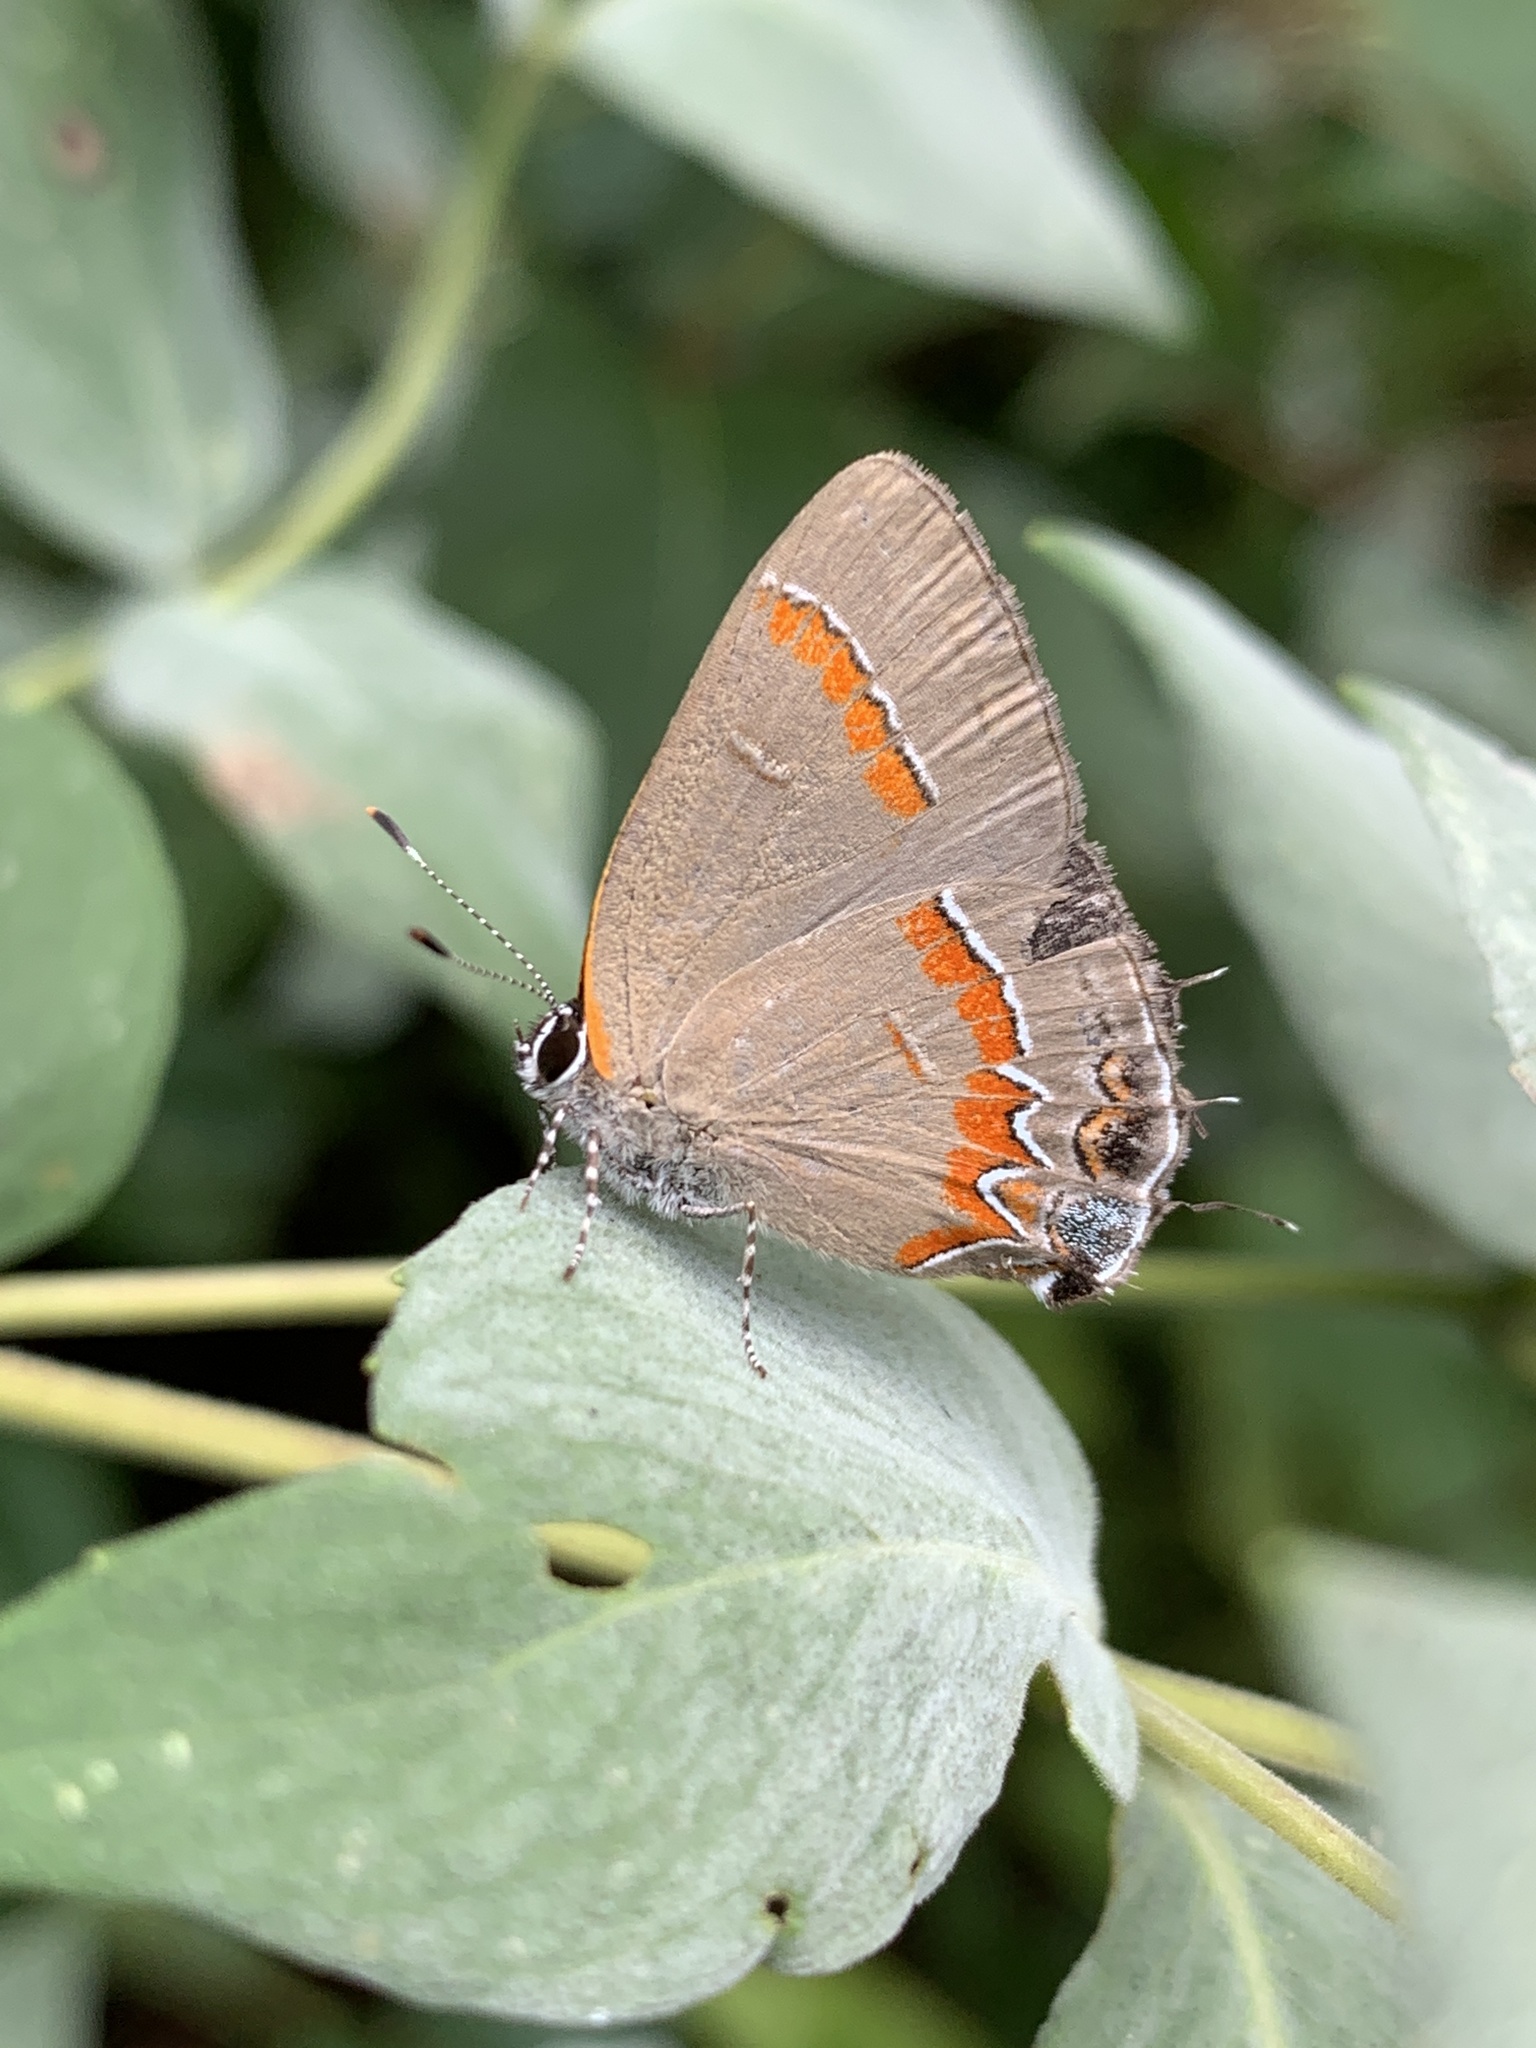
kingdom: Animalia
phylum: Arthropoda
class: Insecta
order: Lepidoptera
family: Lycaenidae
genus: Calycopis
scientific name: Calycopis cecrops
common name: Red-banded hairstreak
